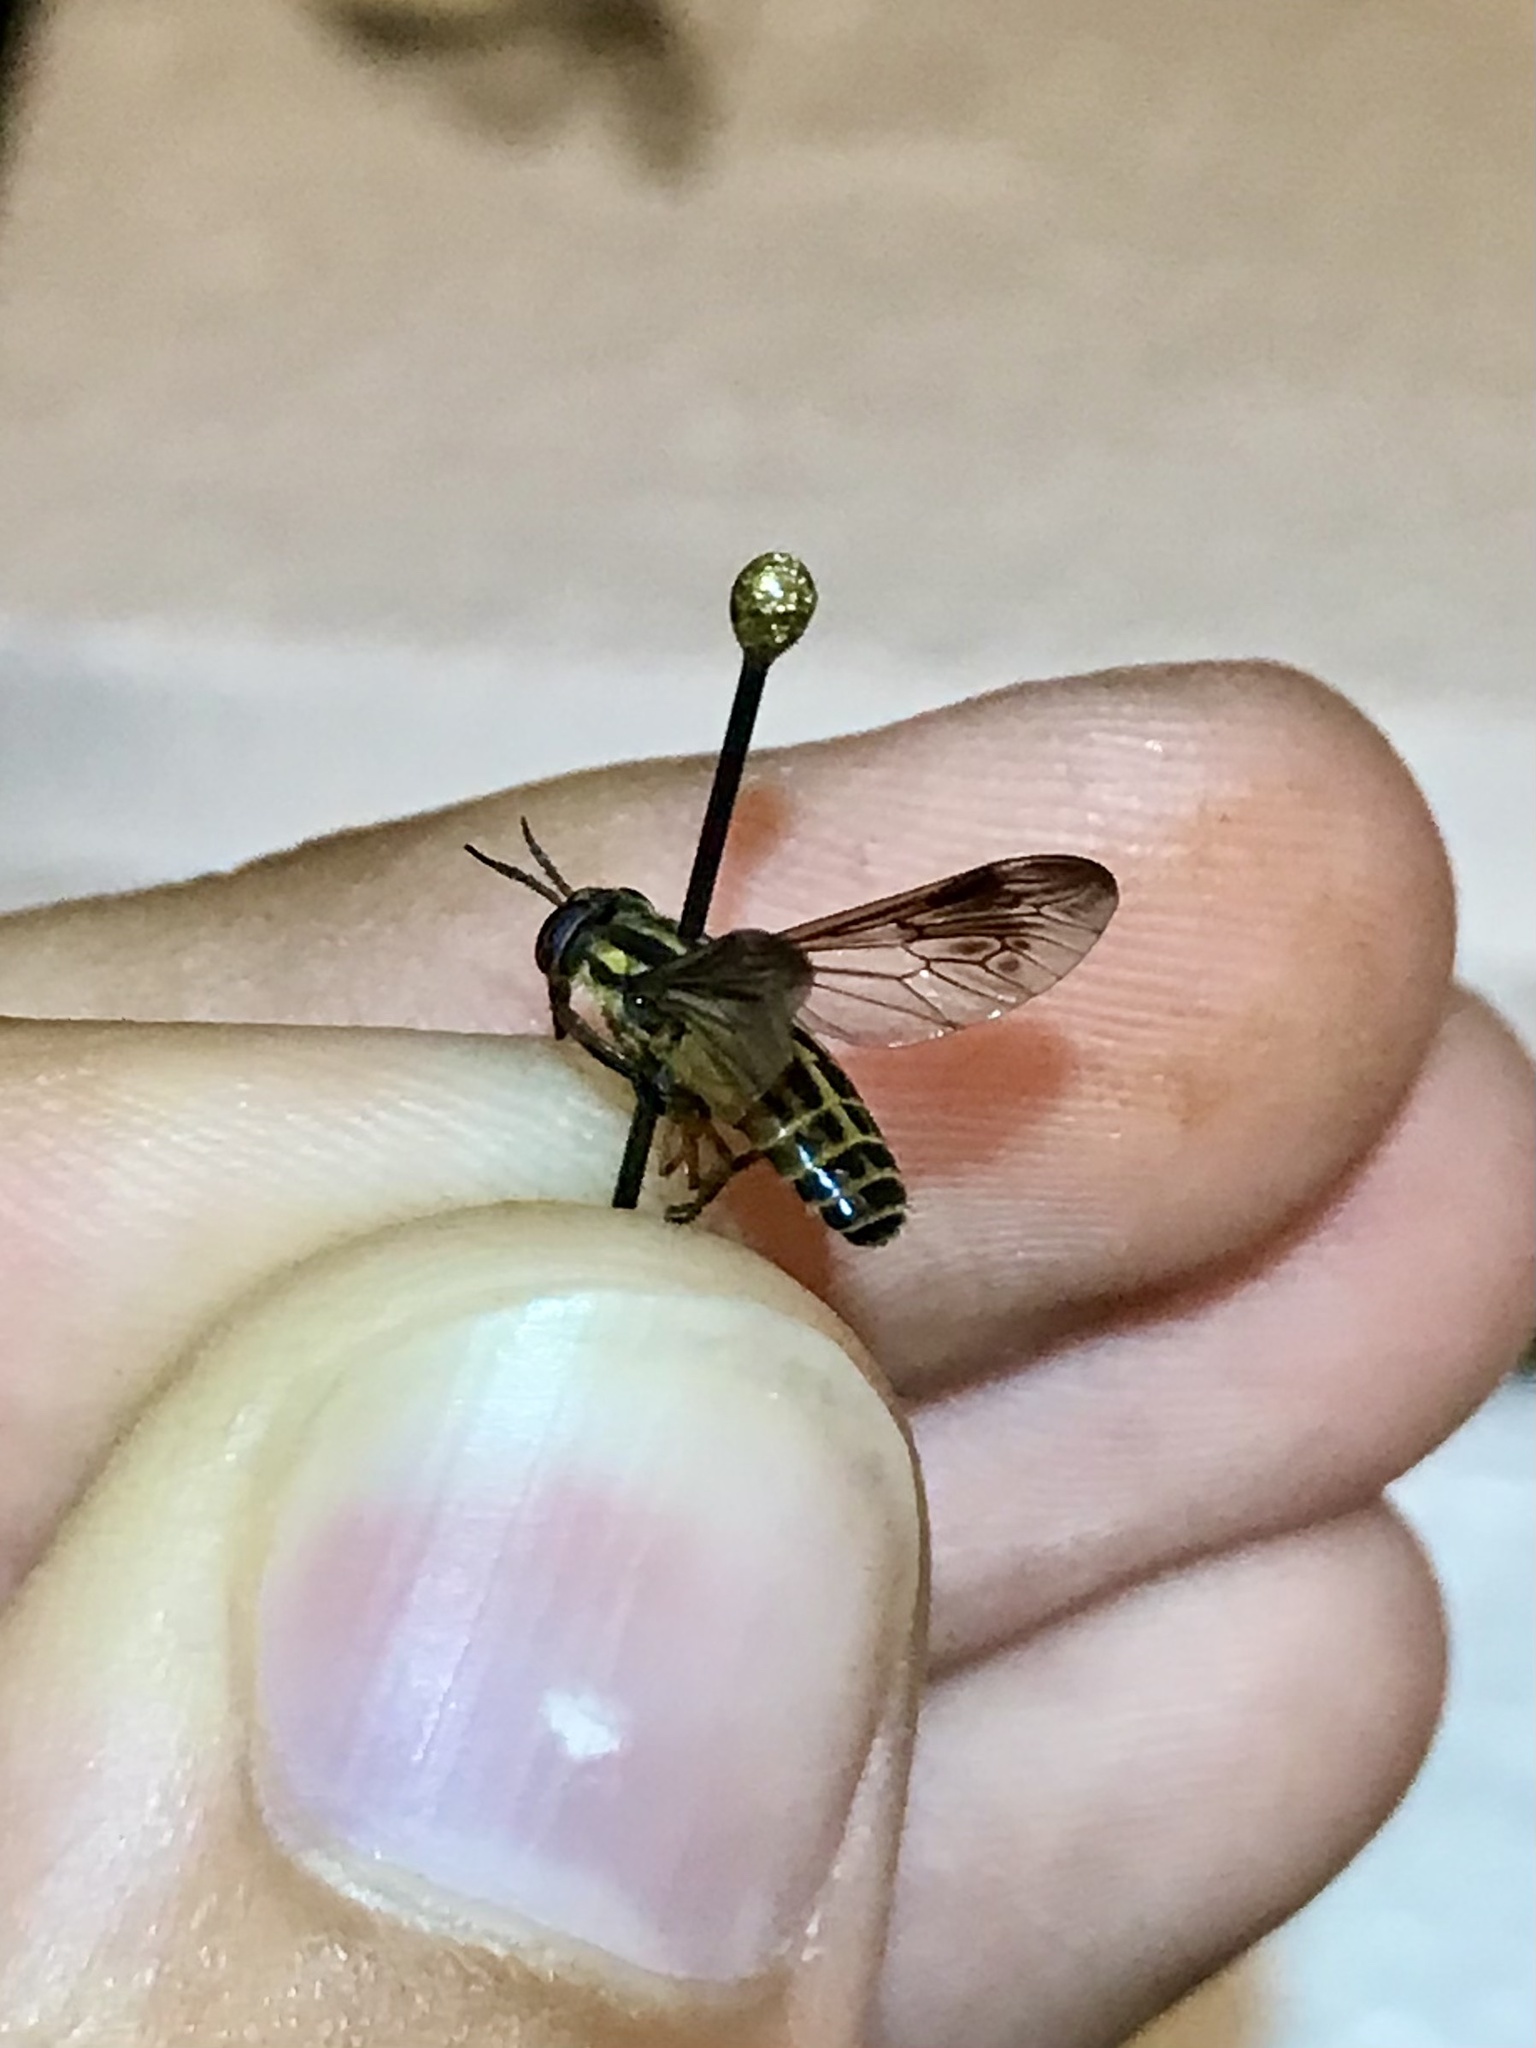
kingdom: Animalia
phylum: Arthropoda
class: Insecta
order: Diptera
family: Tabanidae
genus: Chrysops
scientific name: Chrysops shermani
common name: Sherman's deer fly
